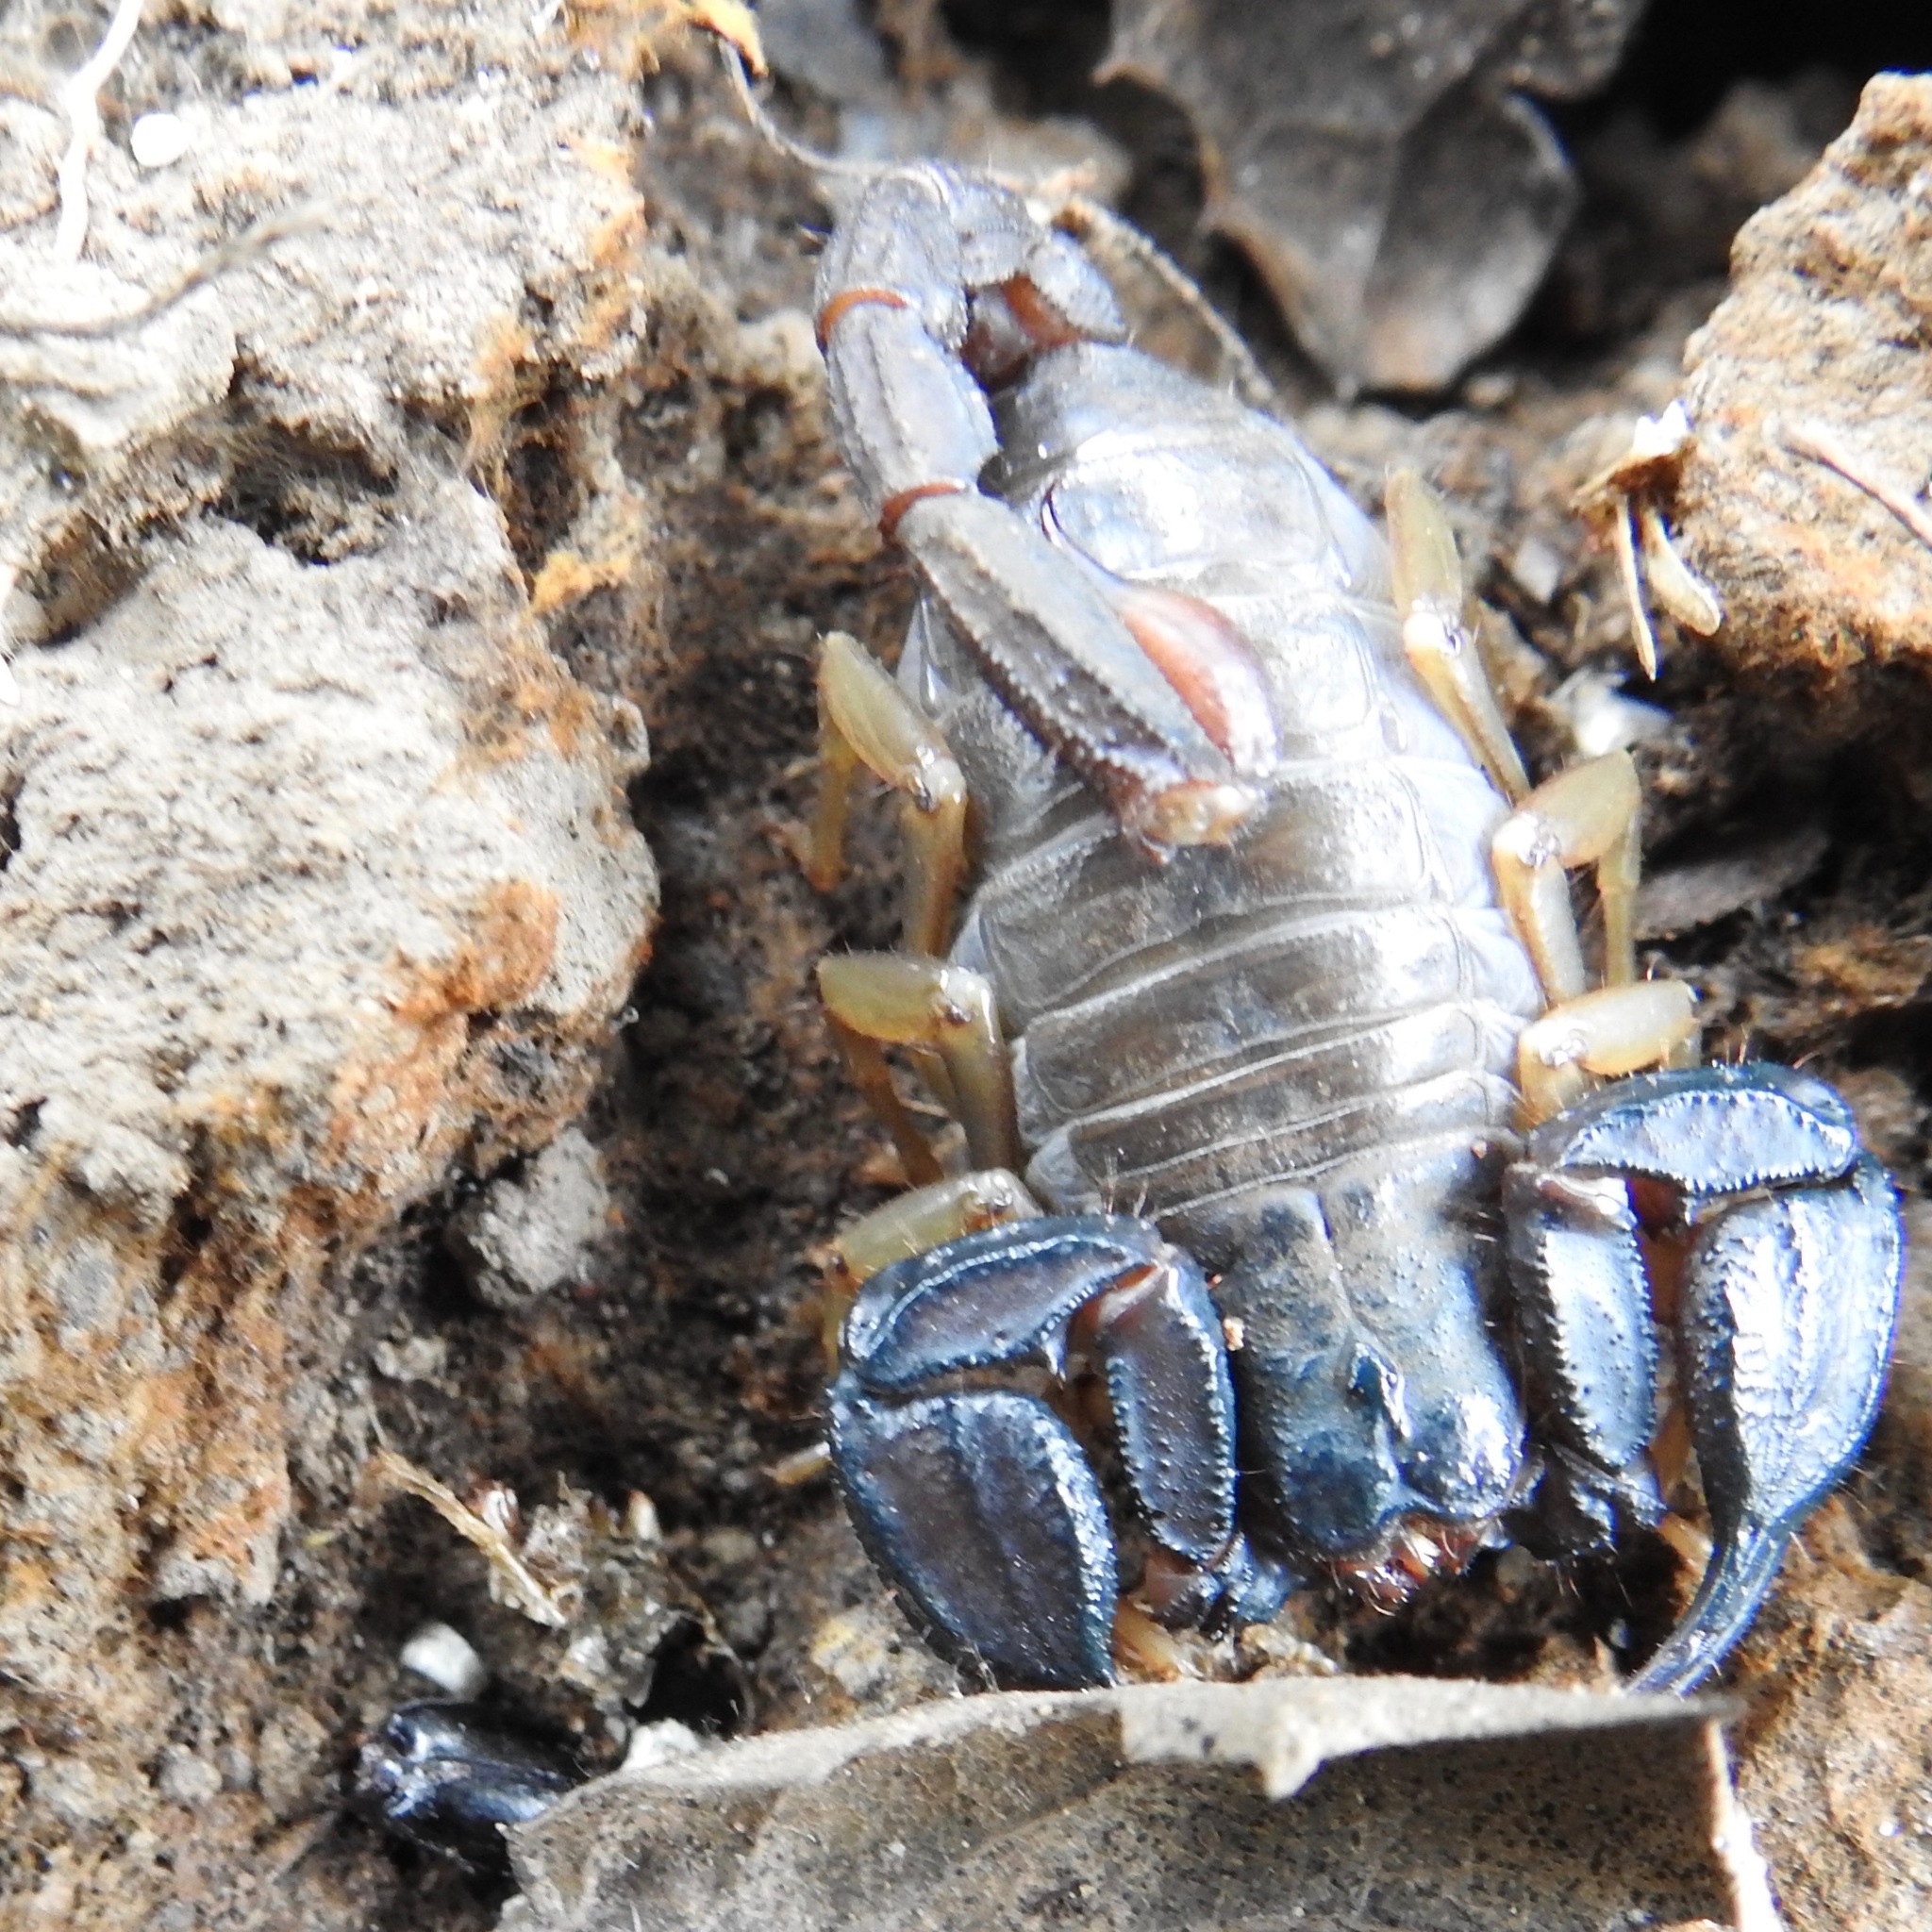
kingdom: Animalia
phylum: Arthropoda
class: Arachnida
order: Scorpiones
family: Chactidae
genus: Uroctonus
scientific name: Uroctonus mordax
